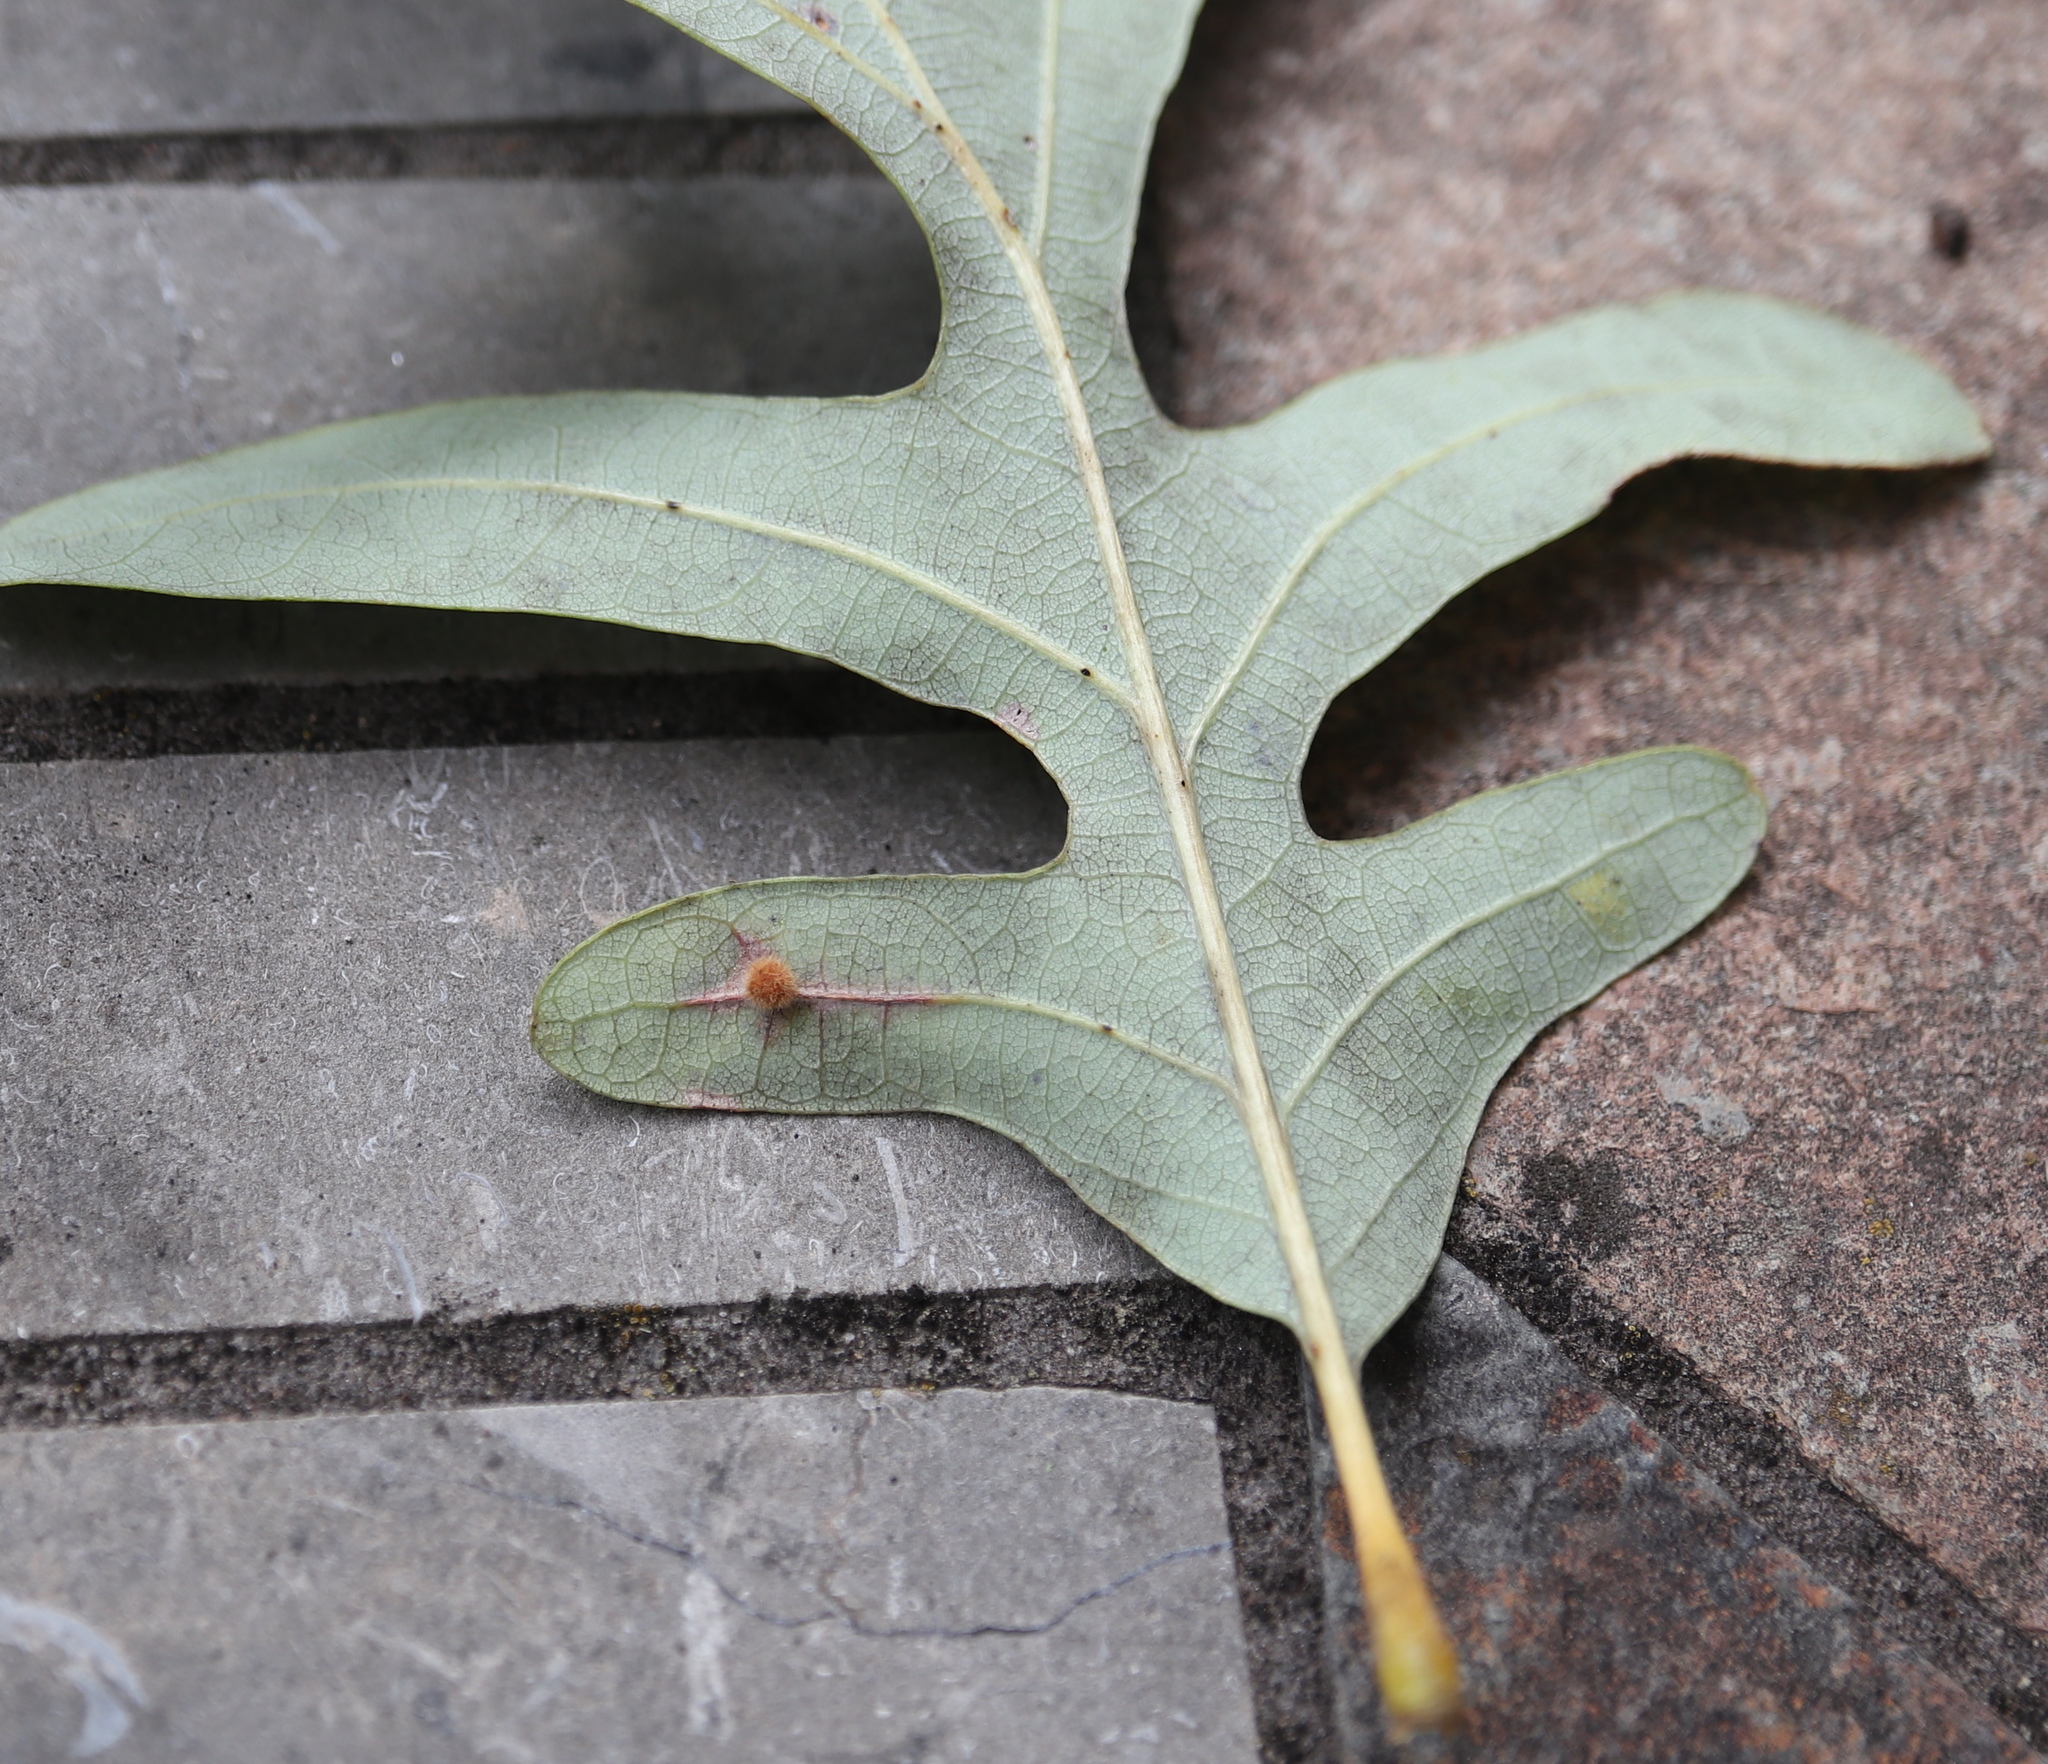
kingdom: Animalia
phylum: Arthropoda
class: Insecta
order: Hymenoptera
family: Cynipidae
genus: Philonix
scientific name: Philonix fulvicollis
